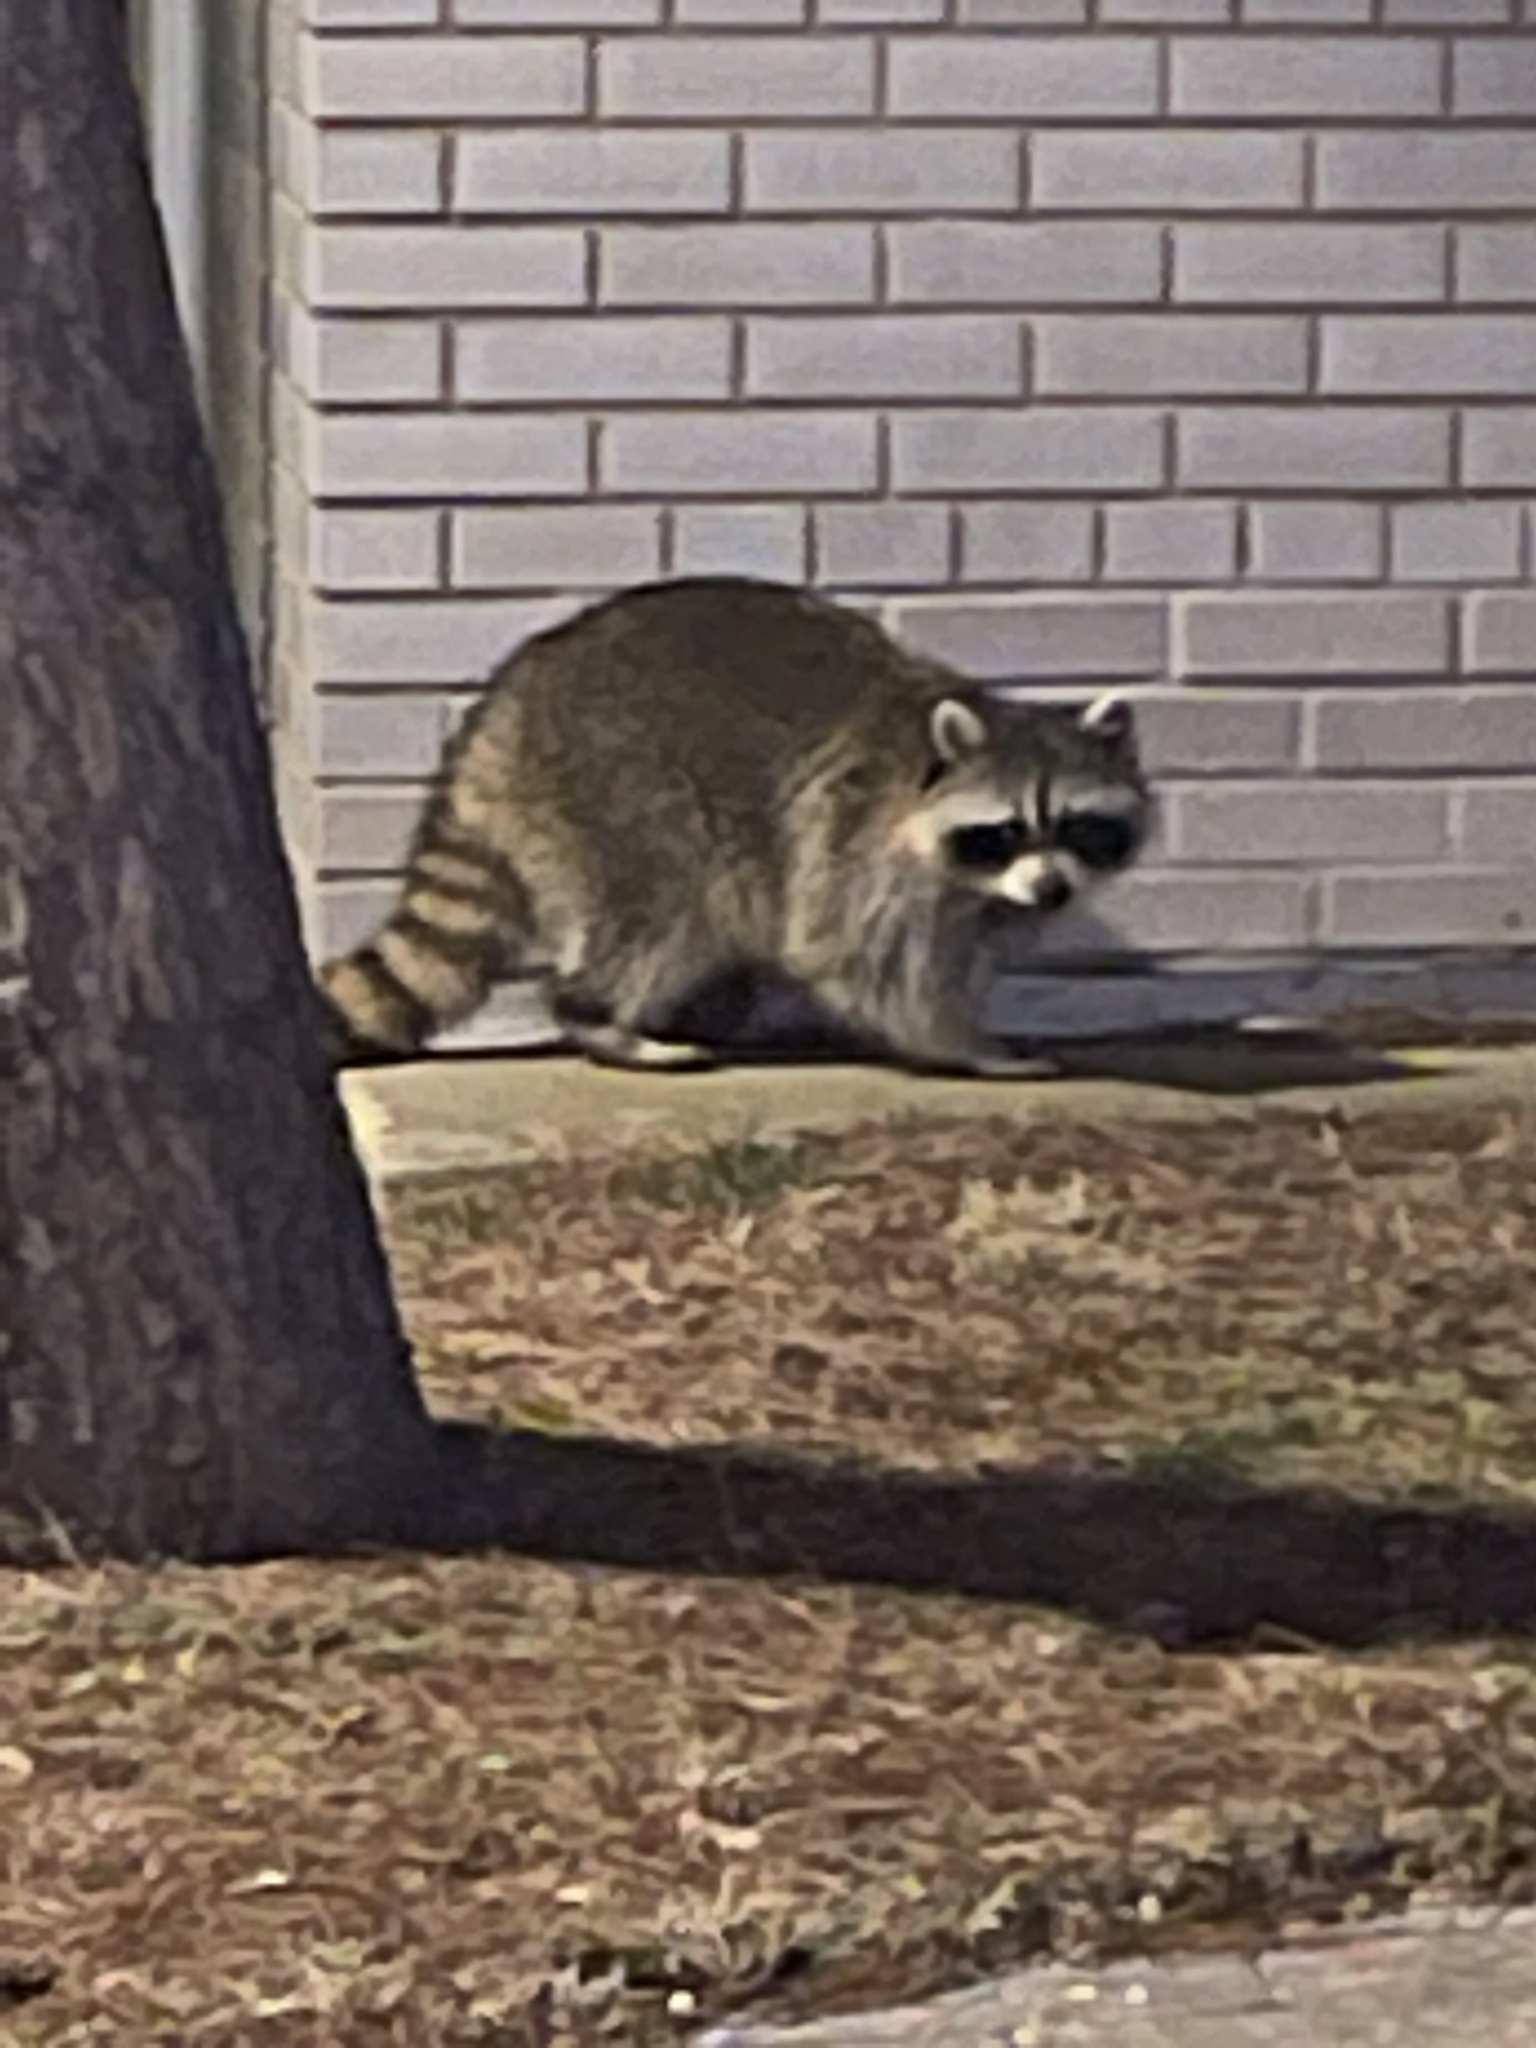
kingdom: Animalia
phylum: Chordata
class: Mammalia
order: Carnivora
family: Procyonidae
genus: Procyon
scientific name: Procyon lotor
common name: Raccoon
